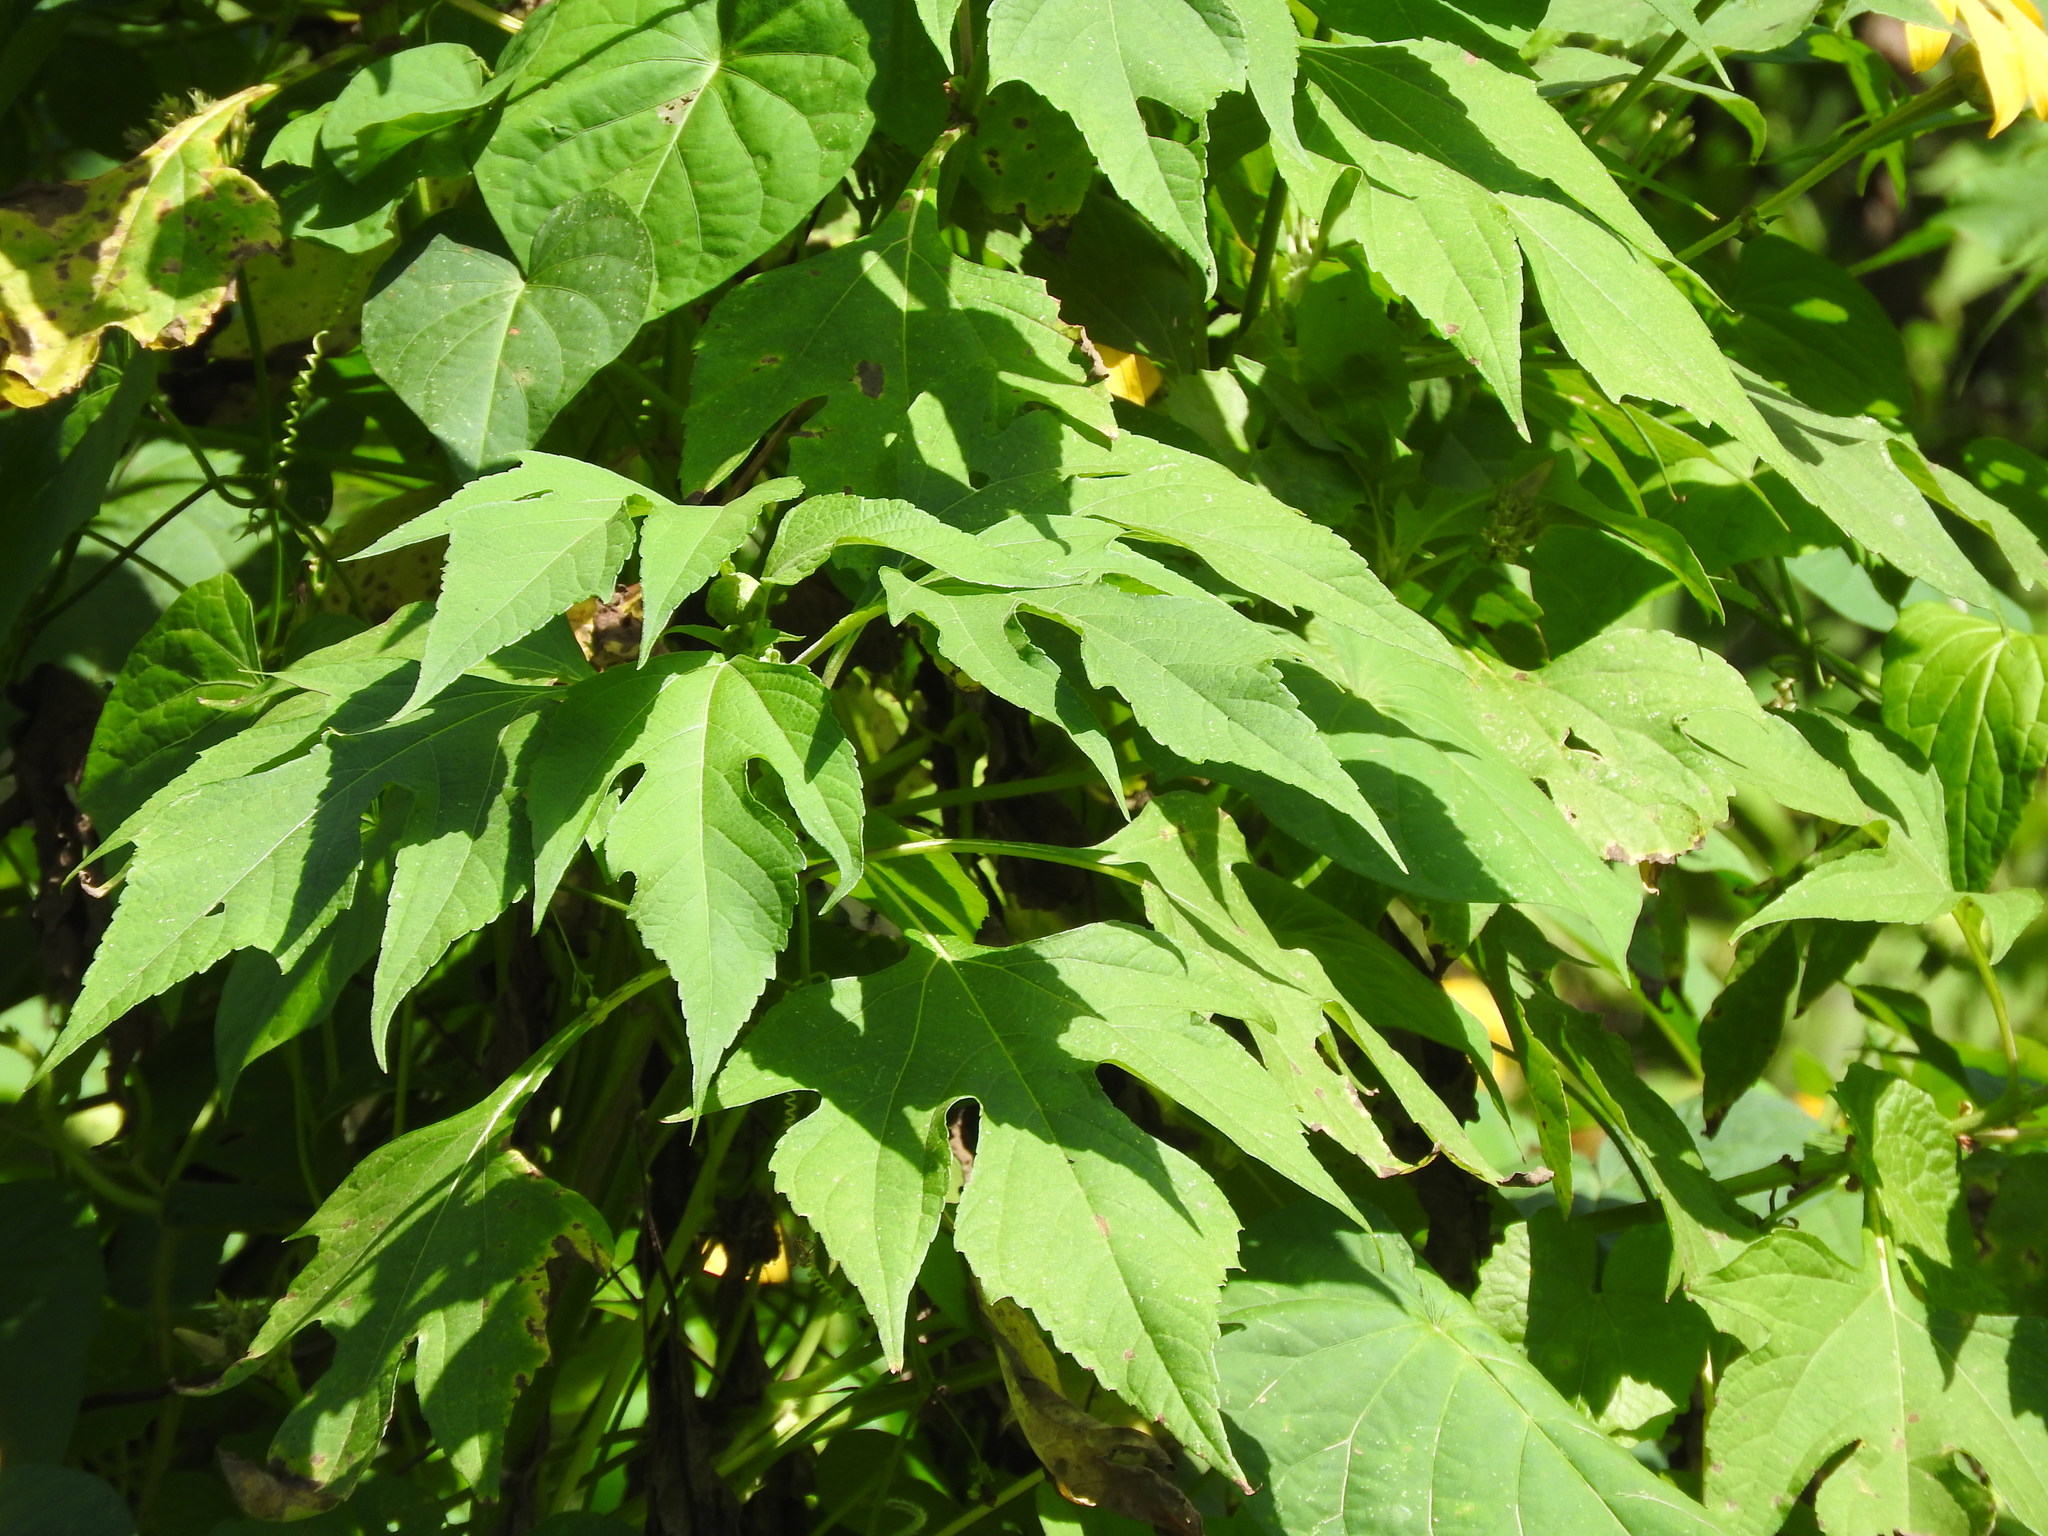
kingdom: Plantae
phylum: Tracheophyta
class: Magnoliopsida
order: Asterales
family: Asteraceae
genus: Tithonia
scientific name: Tithonia diversifolia
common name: Tree marigold
